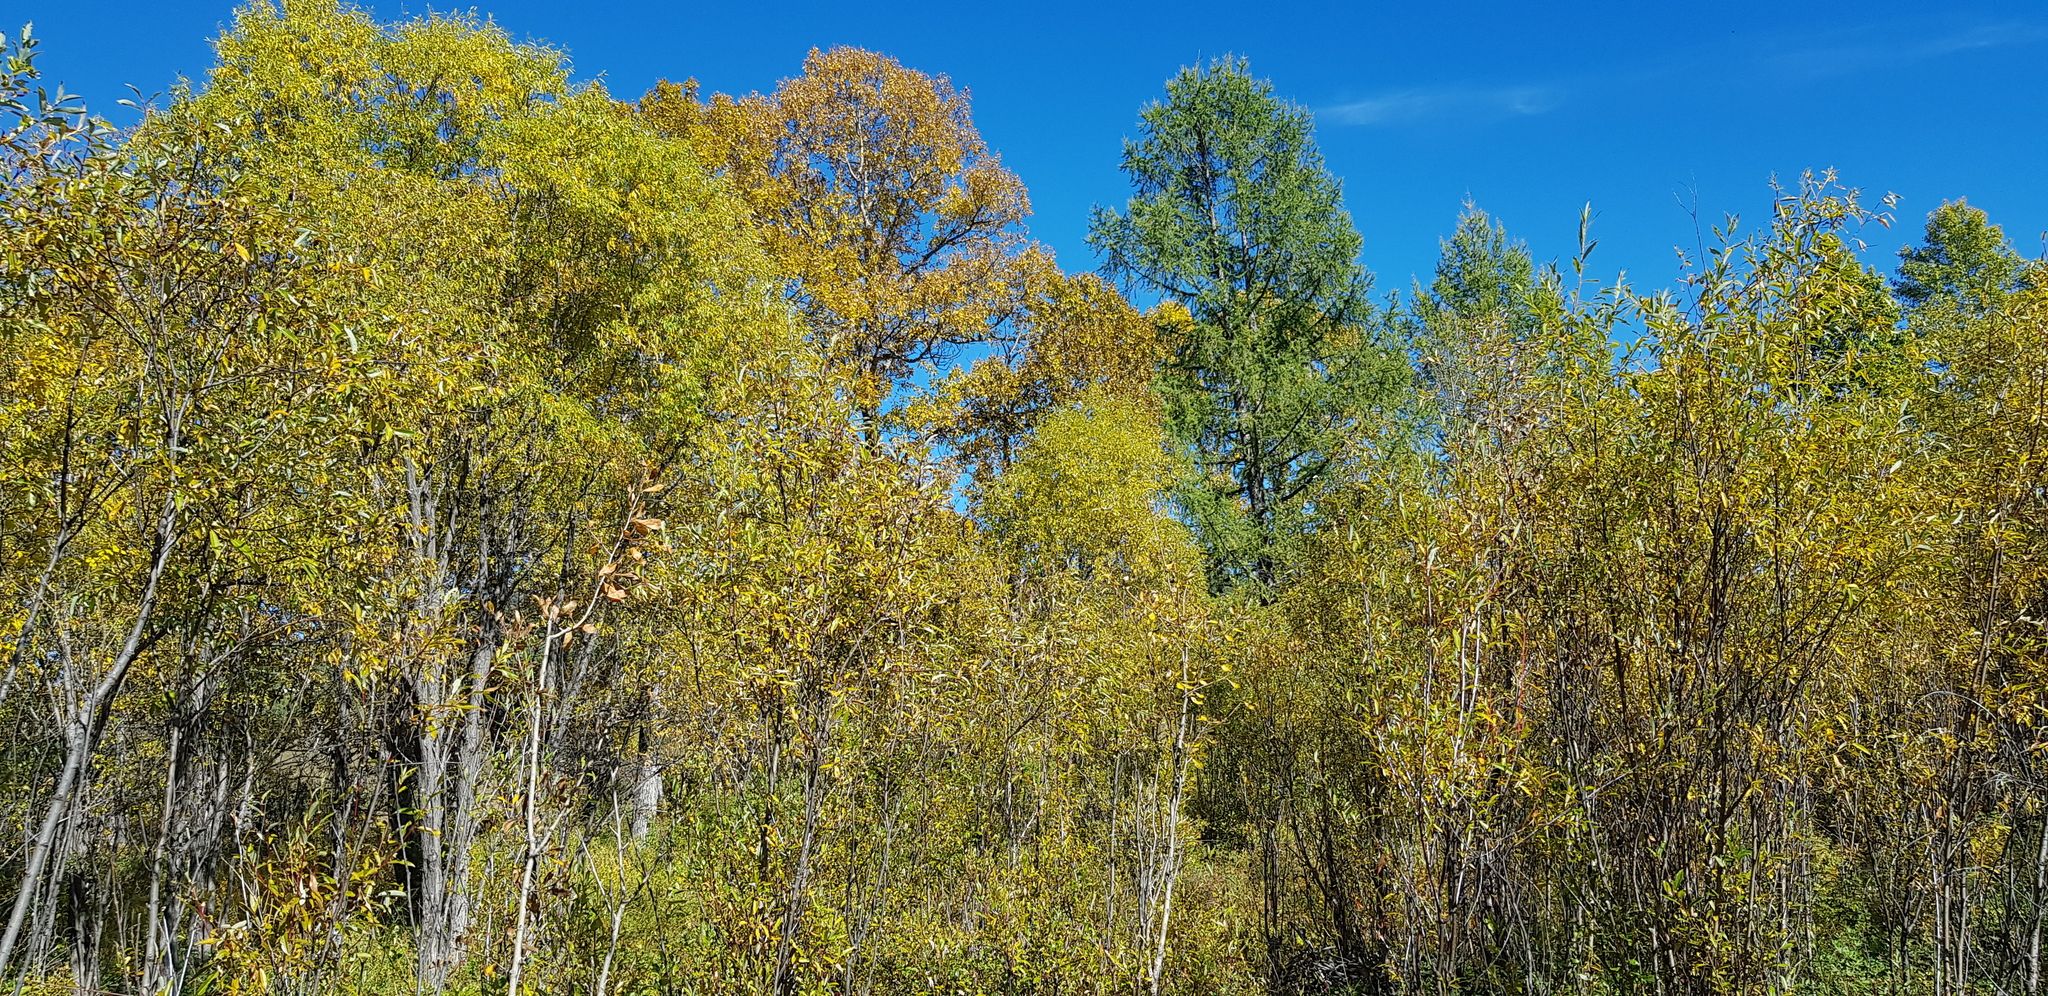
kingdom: Plantae
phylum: Tracheophyta
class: Magnoliopsida
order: Fagales
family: Betulaceae
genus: Betula
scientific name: Betula pendula
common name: Silver birch
